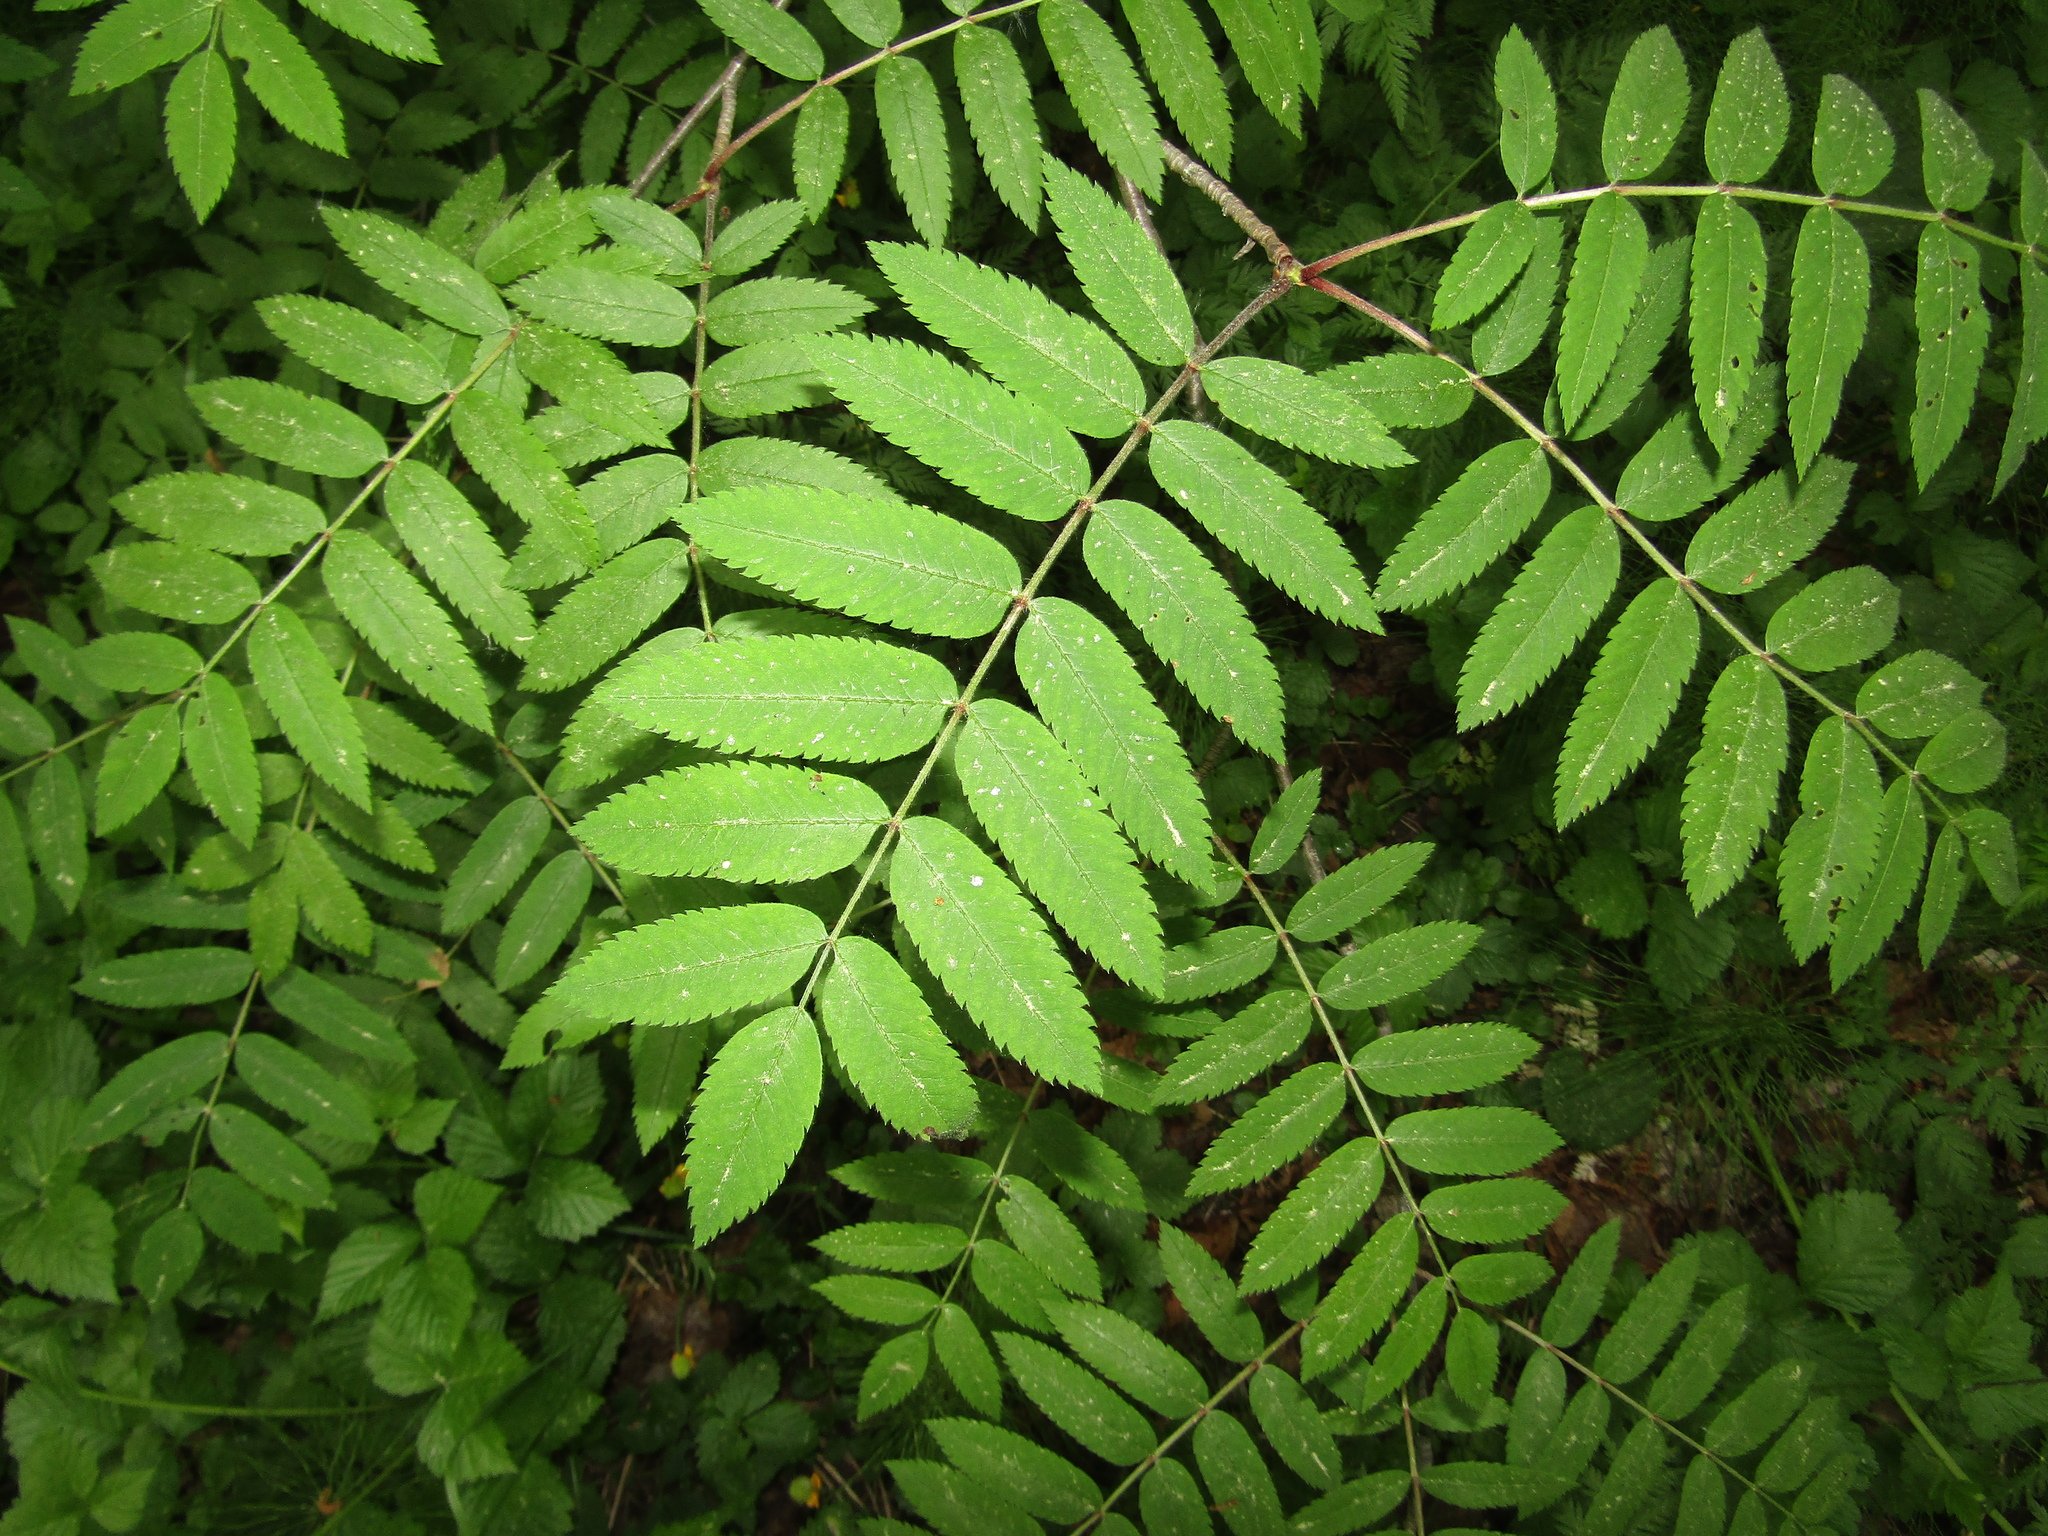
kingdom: Plantae
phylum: Tracheophyta
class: Magnoliopsida
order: Rosales
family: Rosaceae
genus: Sorbus
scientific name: Sorbus aucuparia
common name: Rowan
